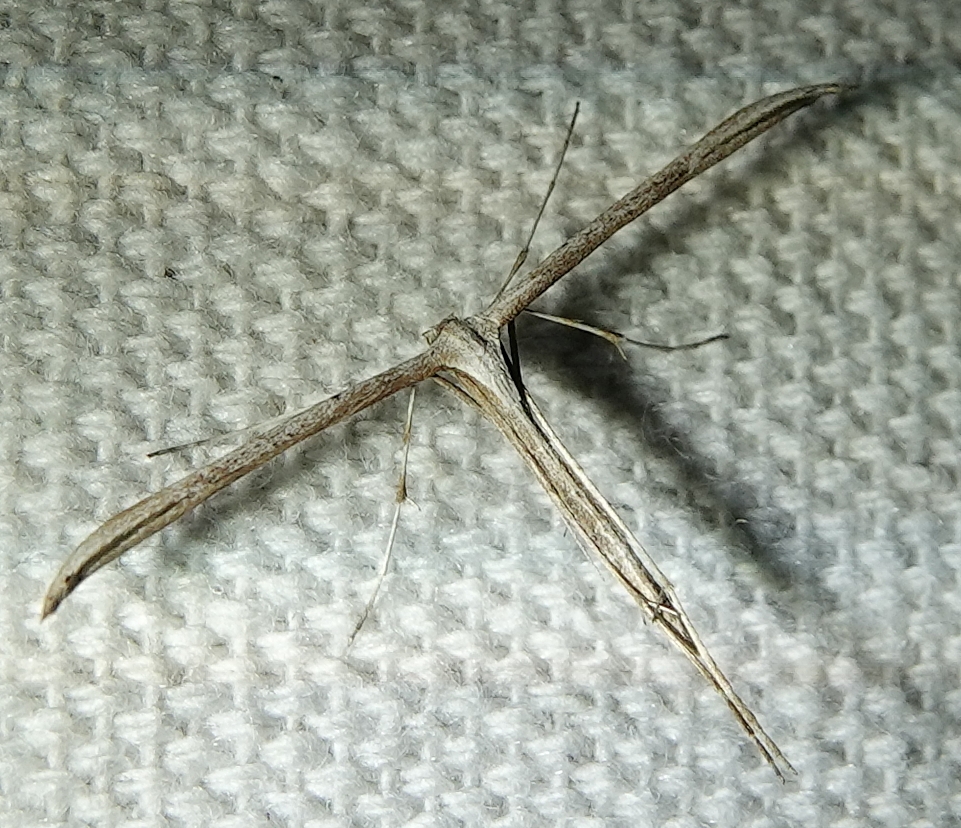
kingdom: Animalia
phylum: Arthropoda
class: Insecta
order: Lepidoptera
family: Pterophoridae
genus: Emmelina
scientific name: Emmelina monodactyla
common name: Common plume
